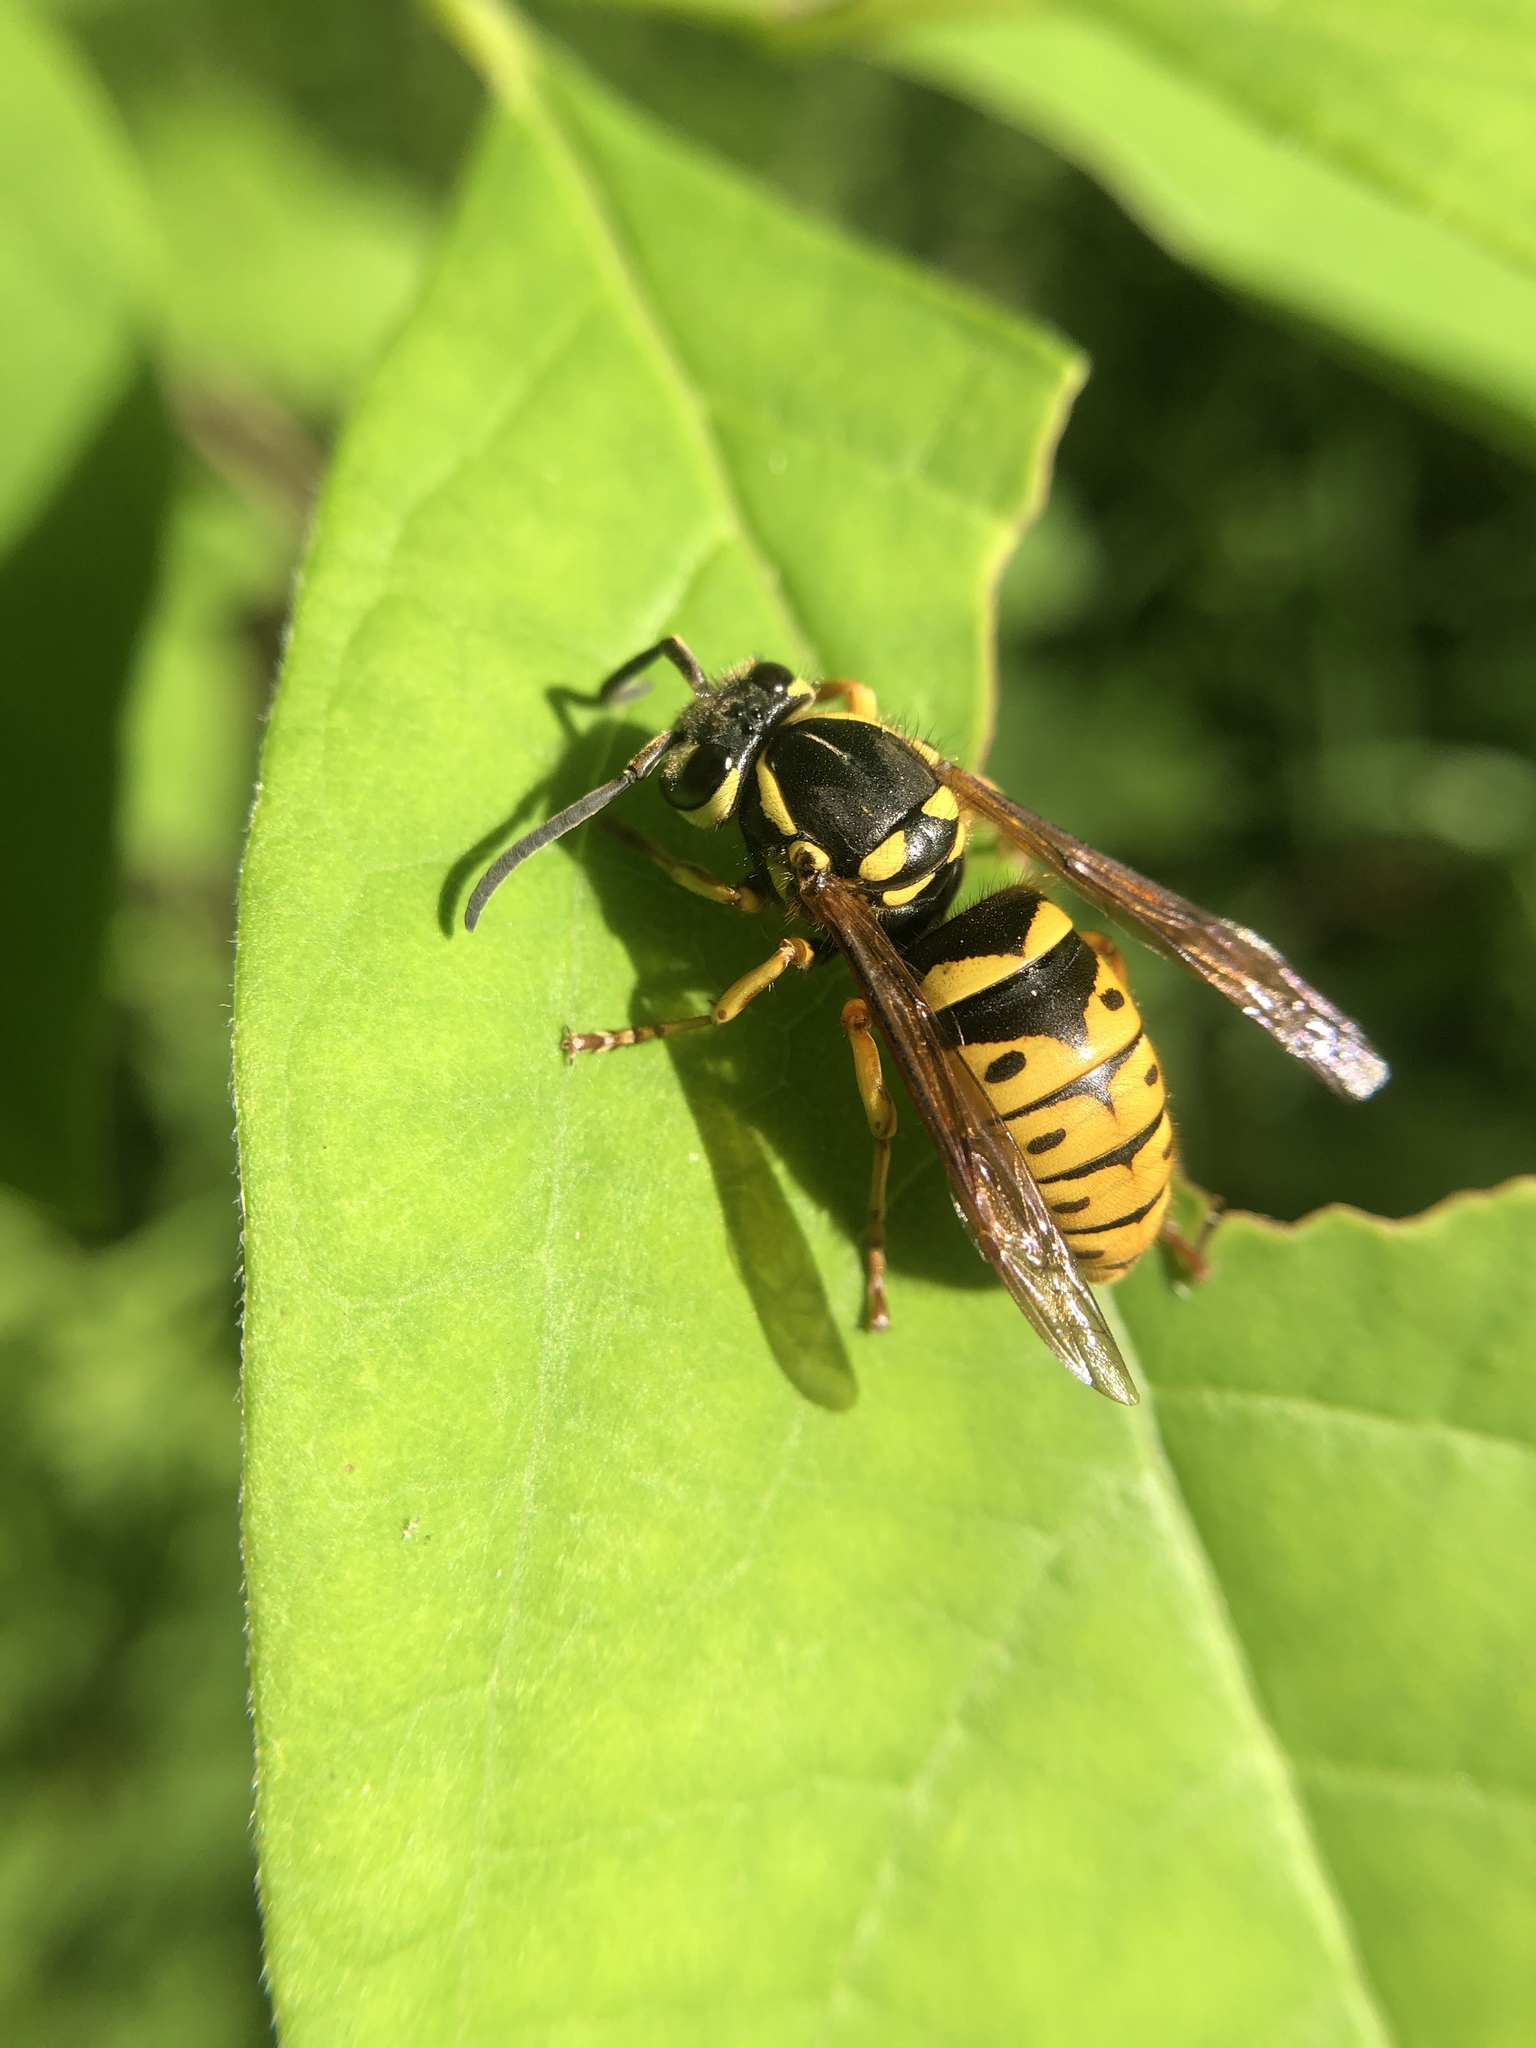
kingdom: Animalia
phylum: Arthropoda
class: Insecta
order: Hymenoptera
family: Vespidae
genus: Vespula
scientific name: Vespula flavopilosa
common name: Downy yellowjacket
